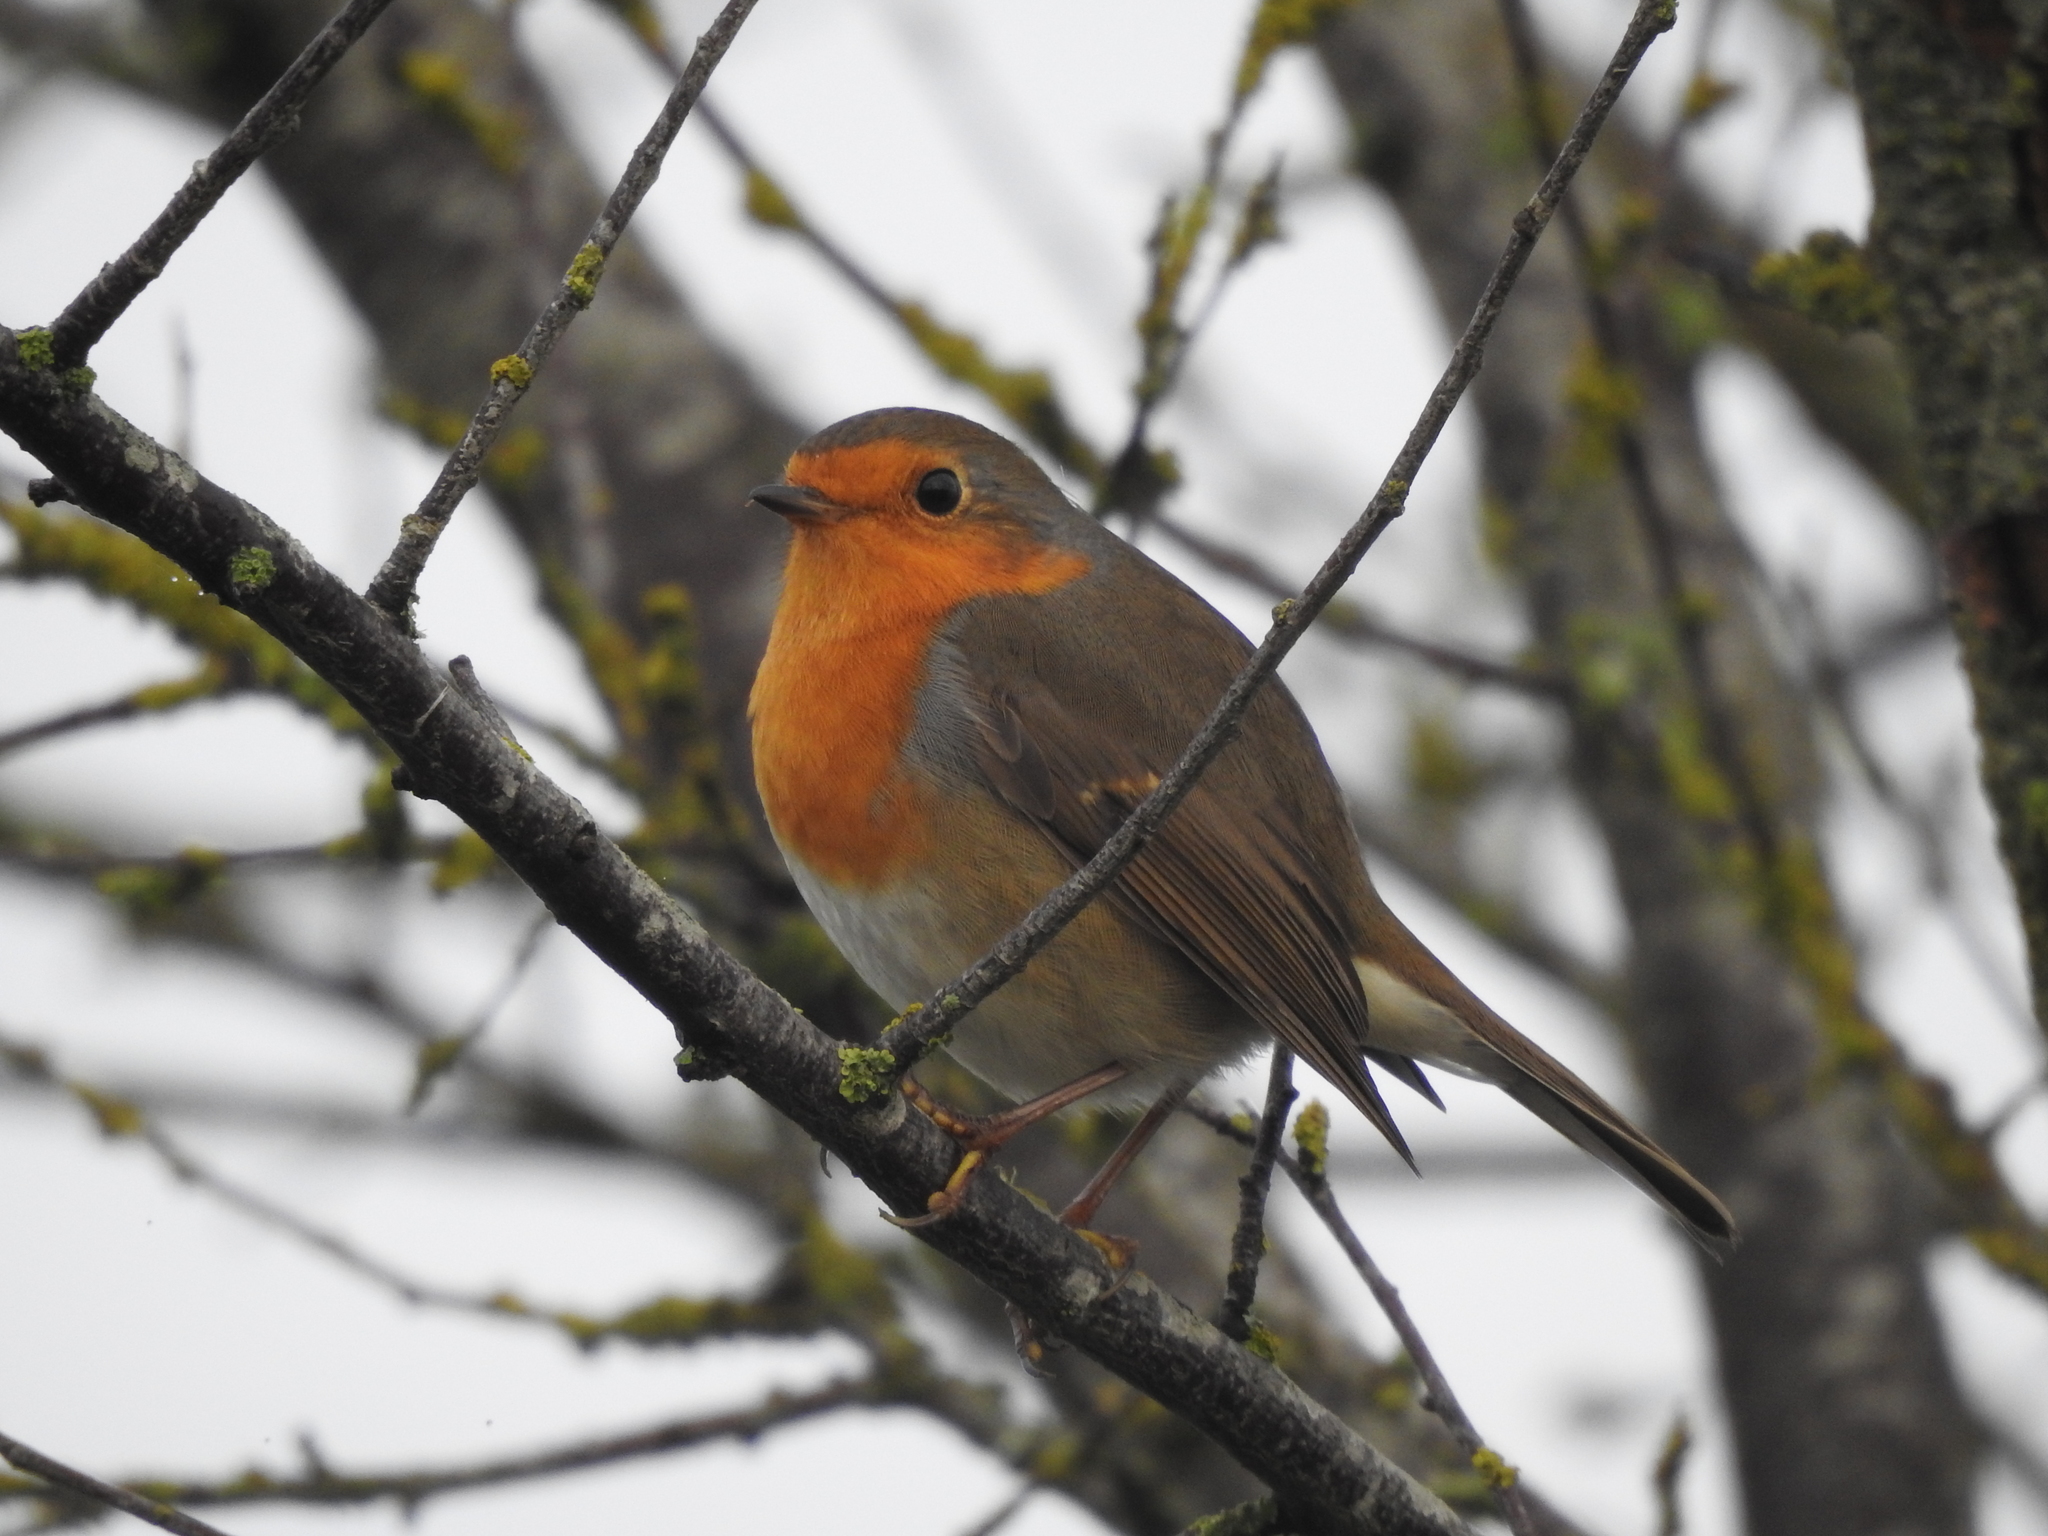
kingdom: Animalia
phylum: Chordata
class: Aves
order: Passeriformes
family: Muscicapidae
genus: Erithacus
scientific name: Erithacus rubecula
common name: European robin
